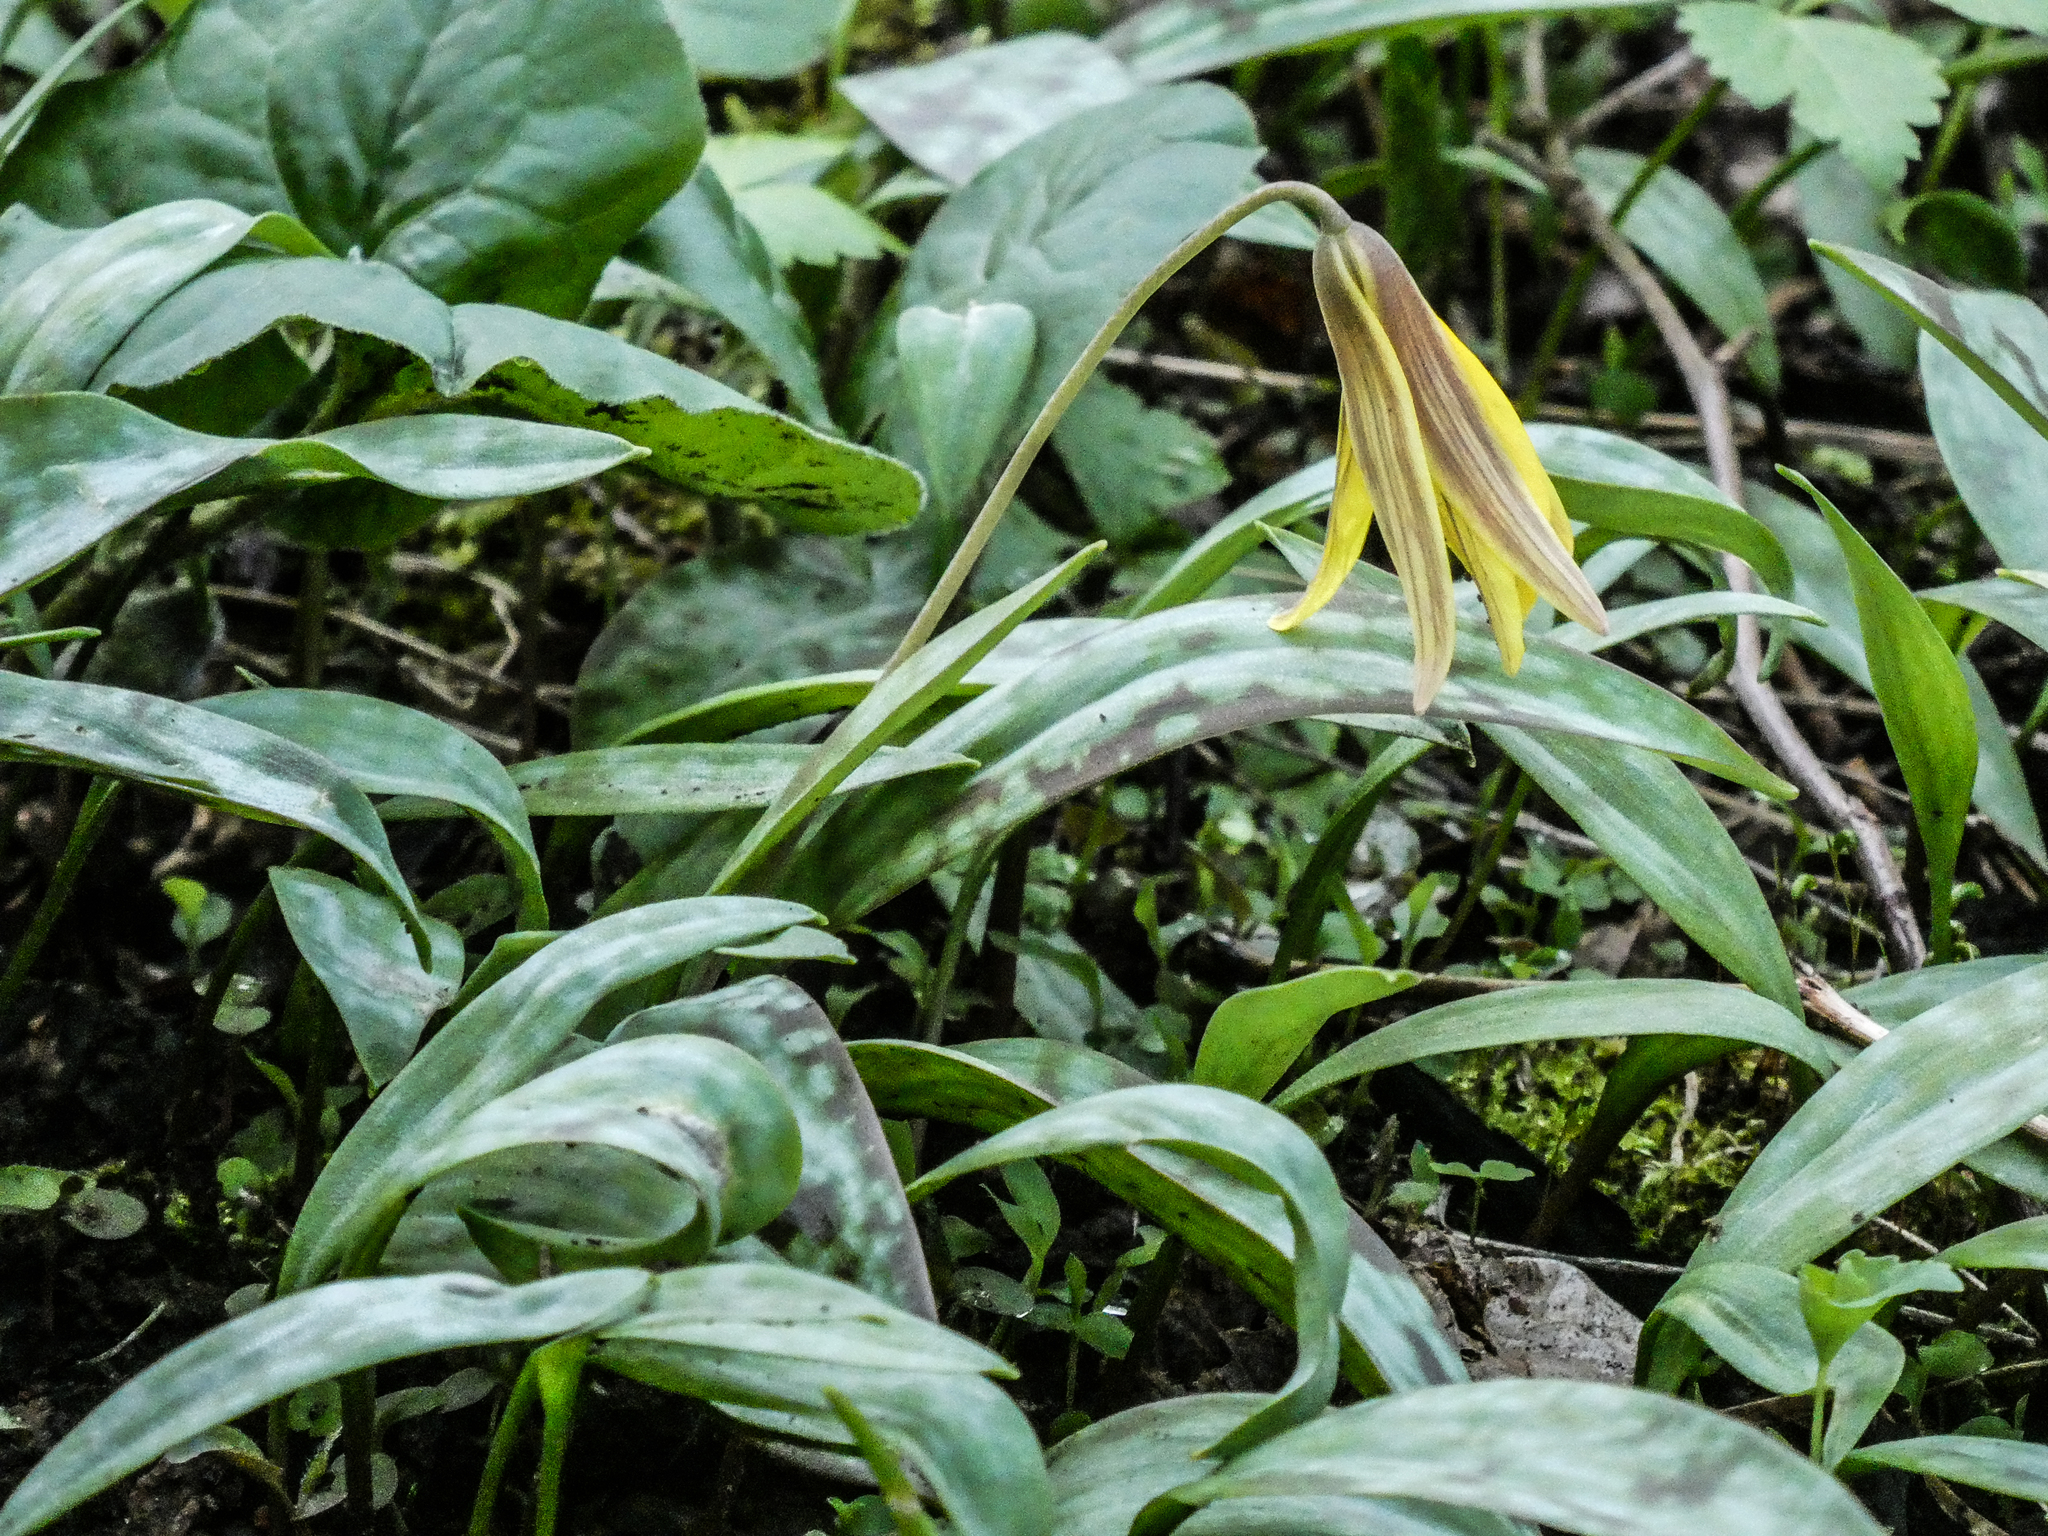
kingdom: Plantae
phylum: Tracheophyta
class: Liliopsida
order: Liliales
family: Liliaceae
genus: Erythronium
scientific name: Erythronium americanum
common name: Yellow adder's-tongue
